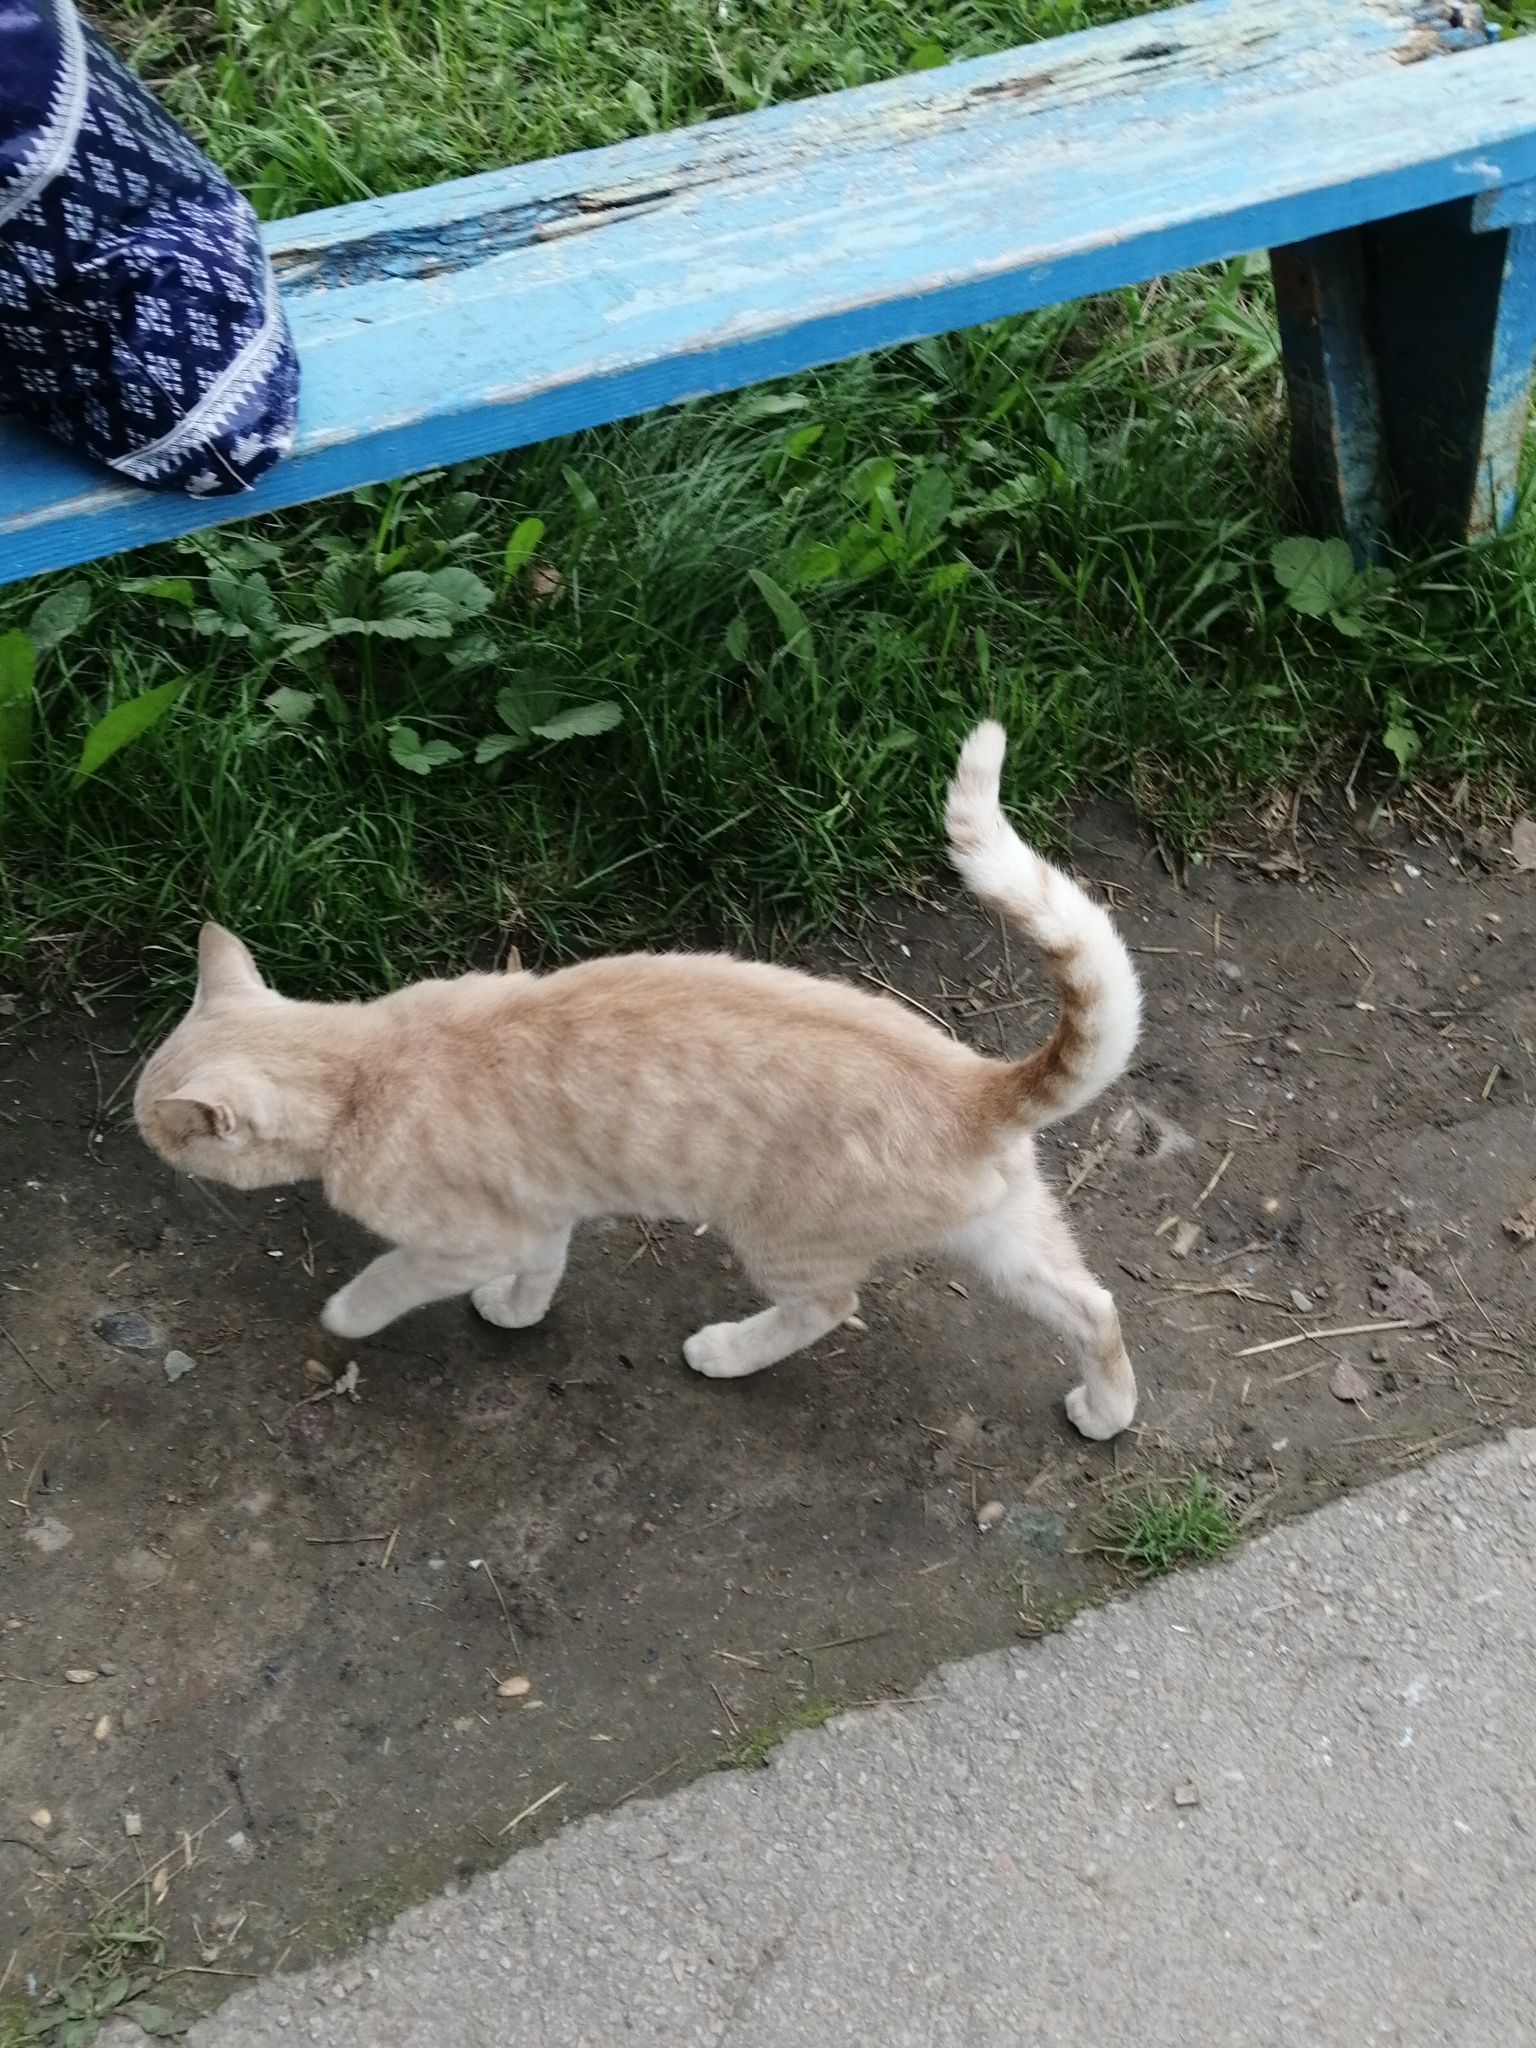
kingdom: Animalia
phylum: Chordata
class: Mammalia
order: Carnivora
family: Felidae
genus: Felis
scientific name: Felis catus
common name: Domestic cat
